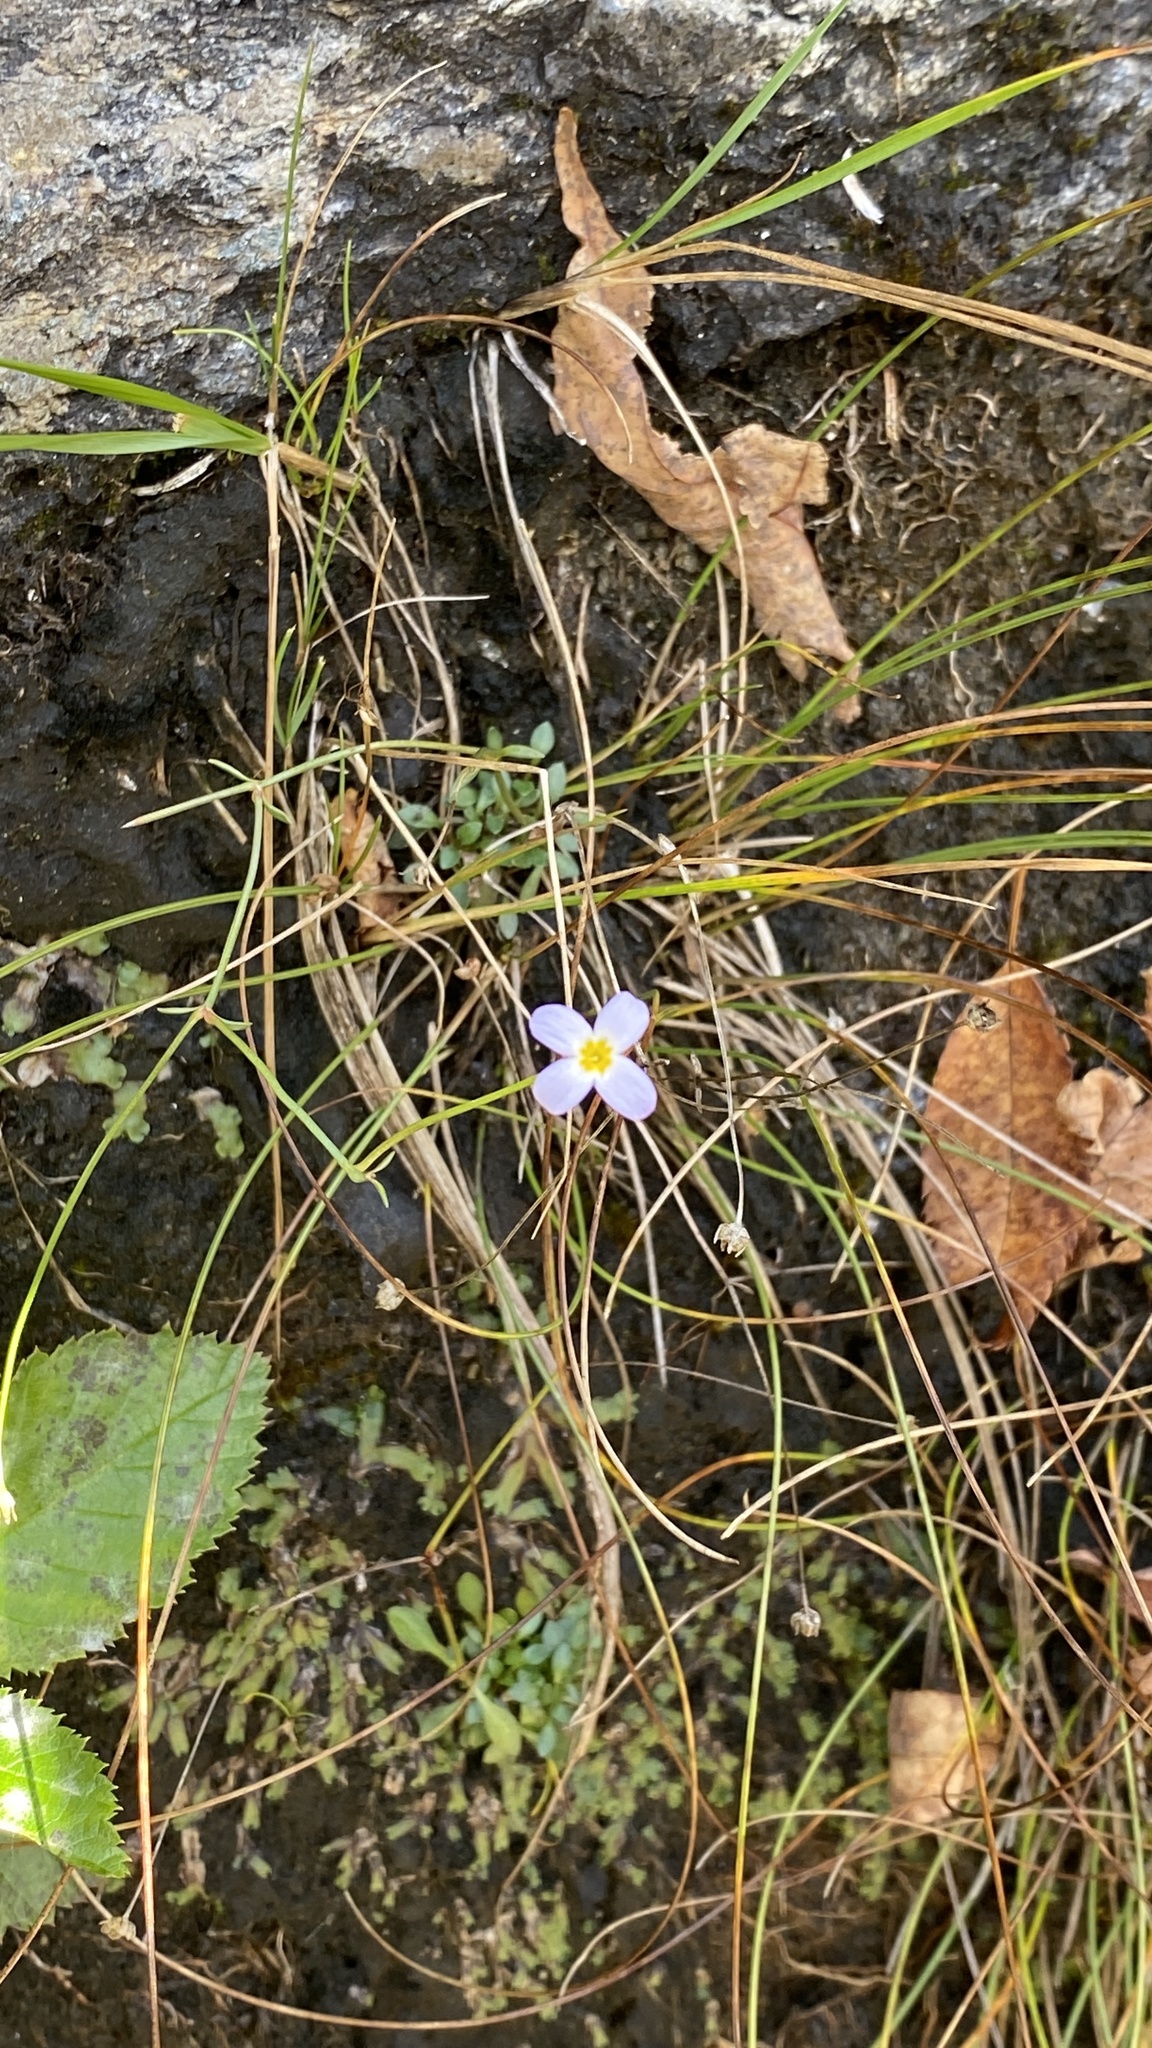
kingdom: Plantae
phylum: Tracheophyta
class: Magnoliopsida
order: Gentianales
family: Rubiaceae
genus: Houstonia
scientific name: Houstonia caerulea
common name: Bluets
